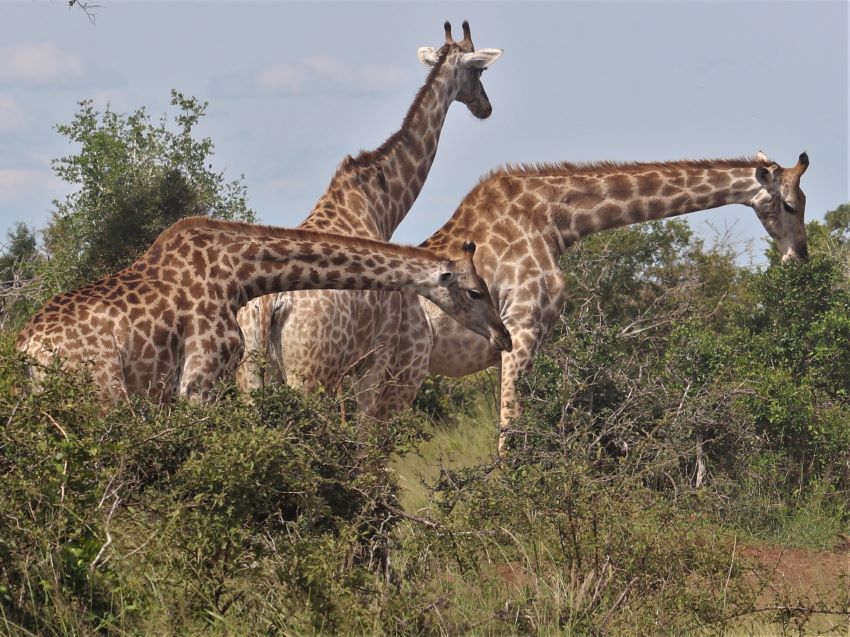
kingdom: Animalia
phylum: Chordata
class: Mammalia
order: Artiodactyla
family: Giraffidae
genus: Giraffa
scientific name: Giraffa giraffa
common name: Southern giraffe
